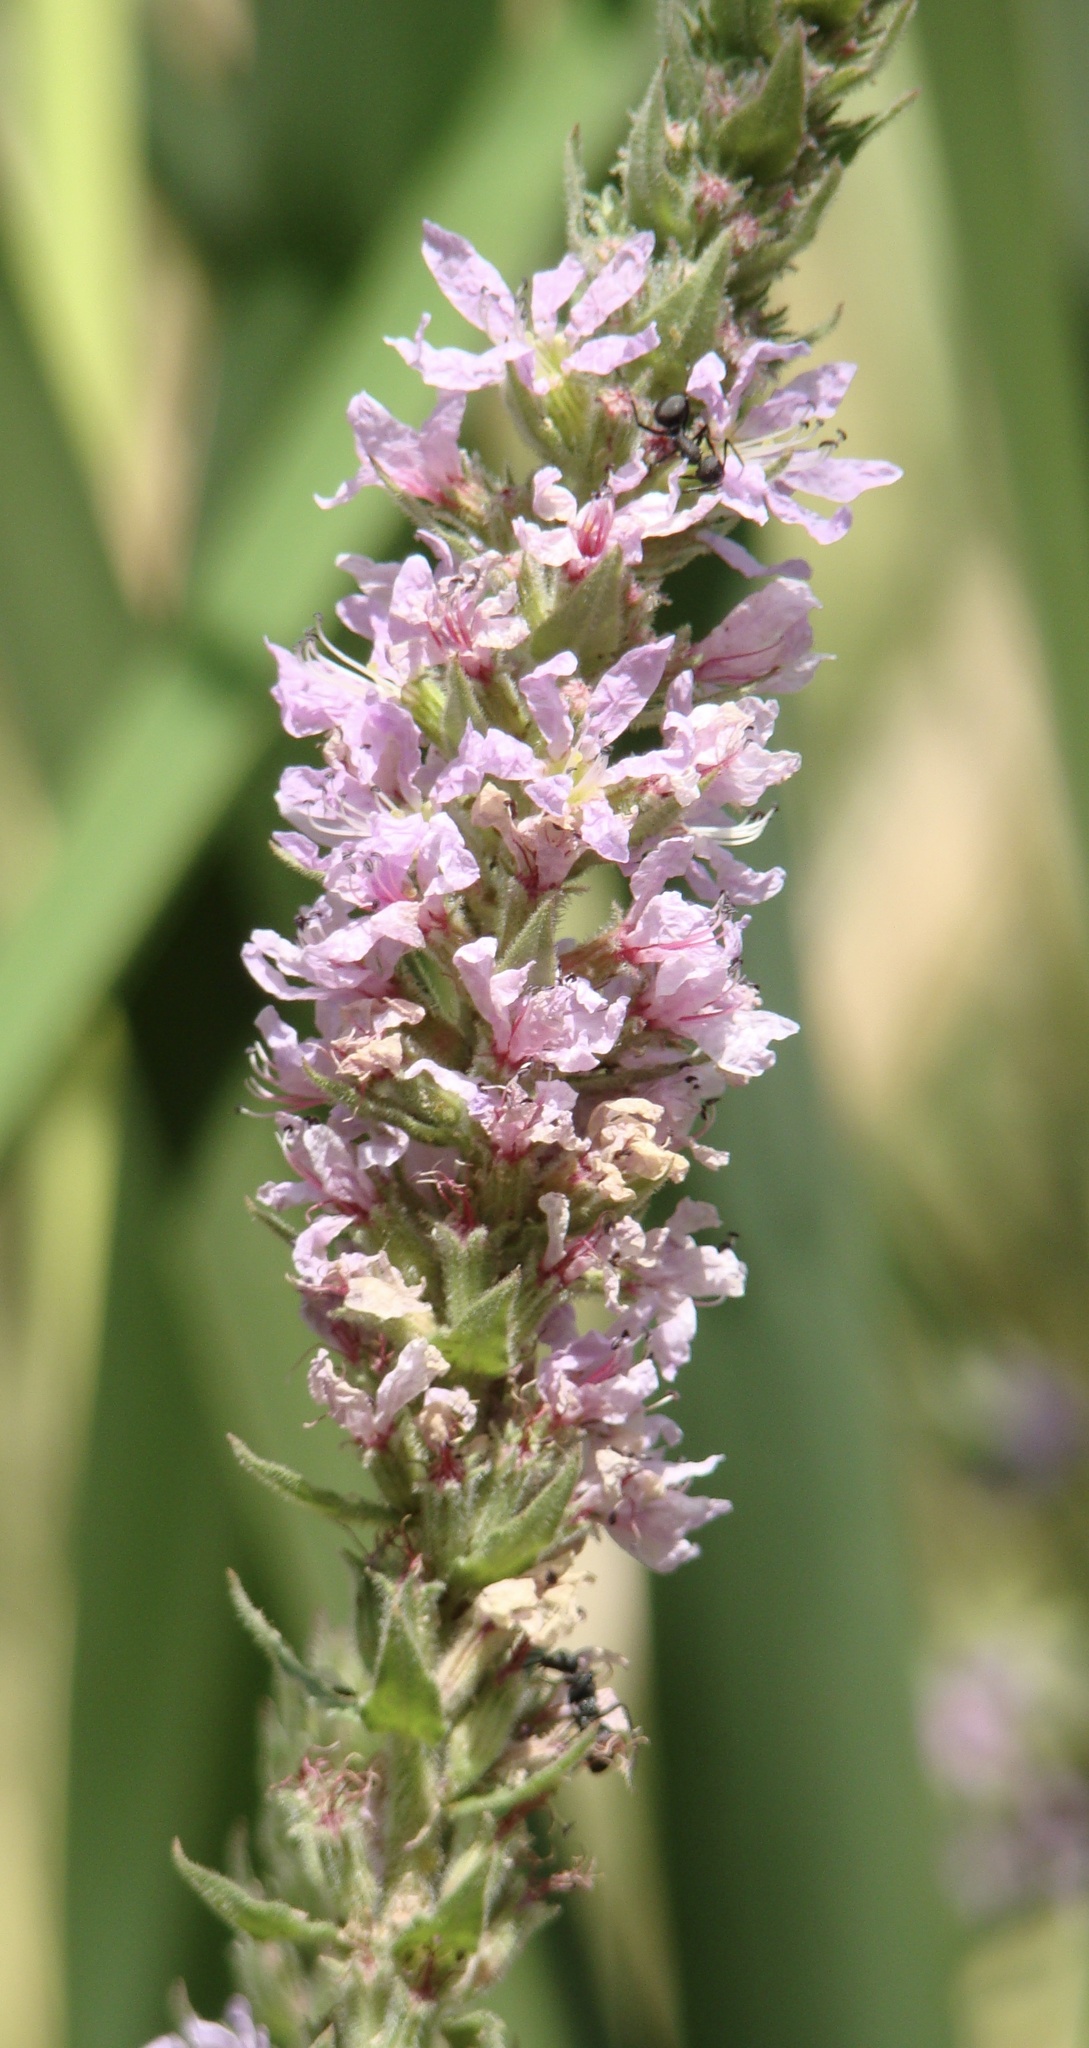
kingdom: Plantae
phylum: Tracheophyta
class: Magnoliopsida
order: Myrtales
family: Lythraceae
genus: Lythrum
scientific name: Lythrum salicaria
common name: Purple loosestrife
